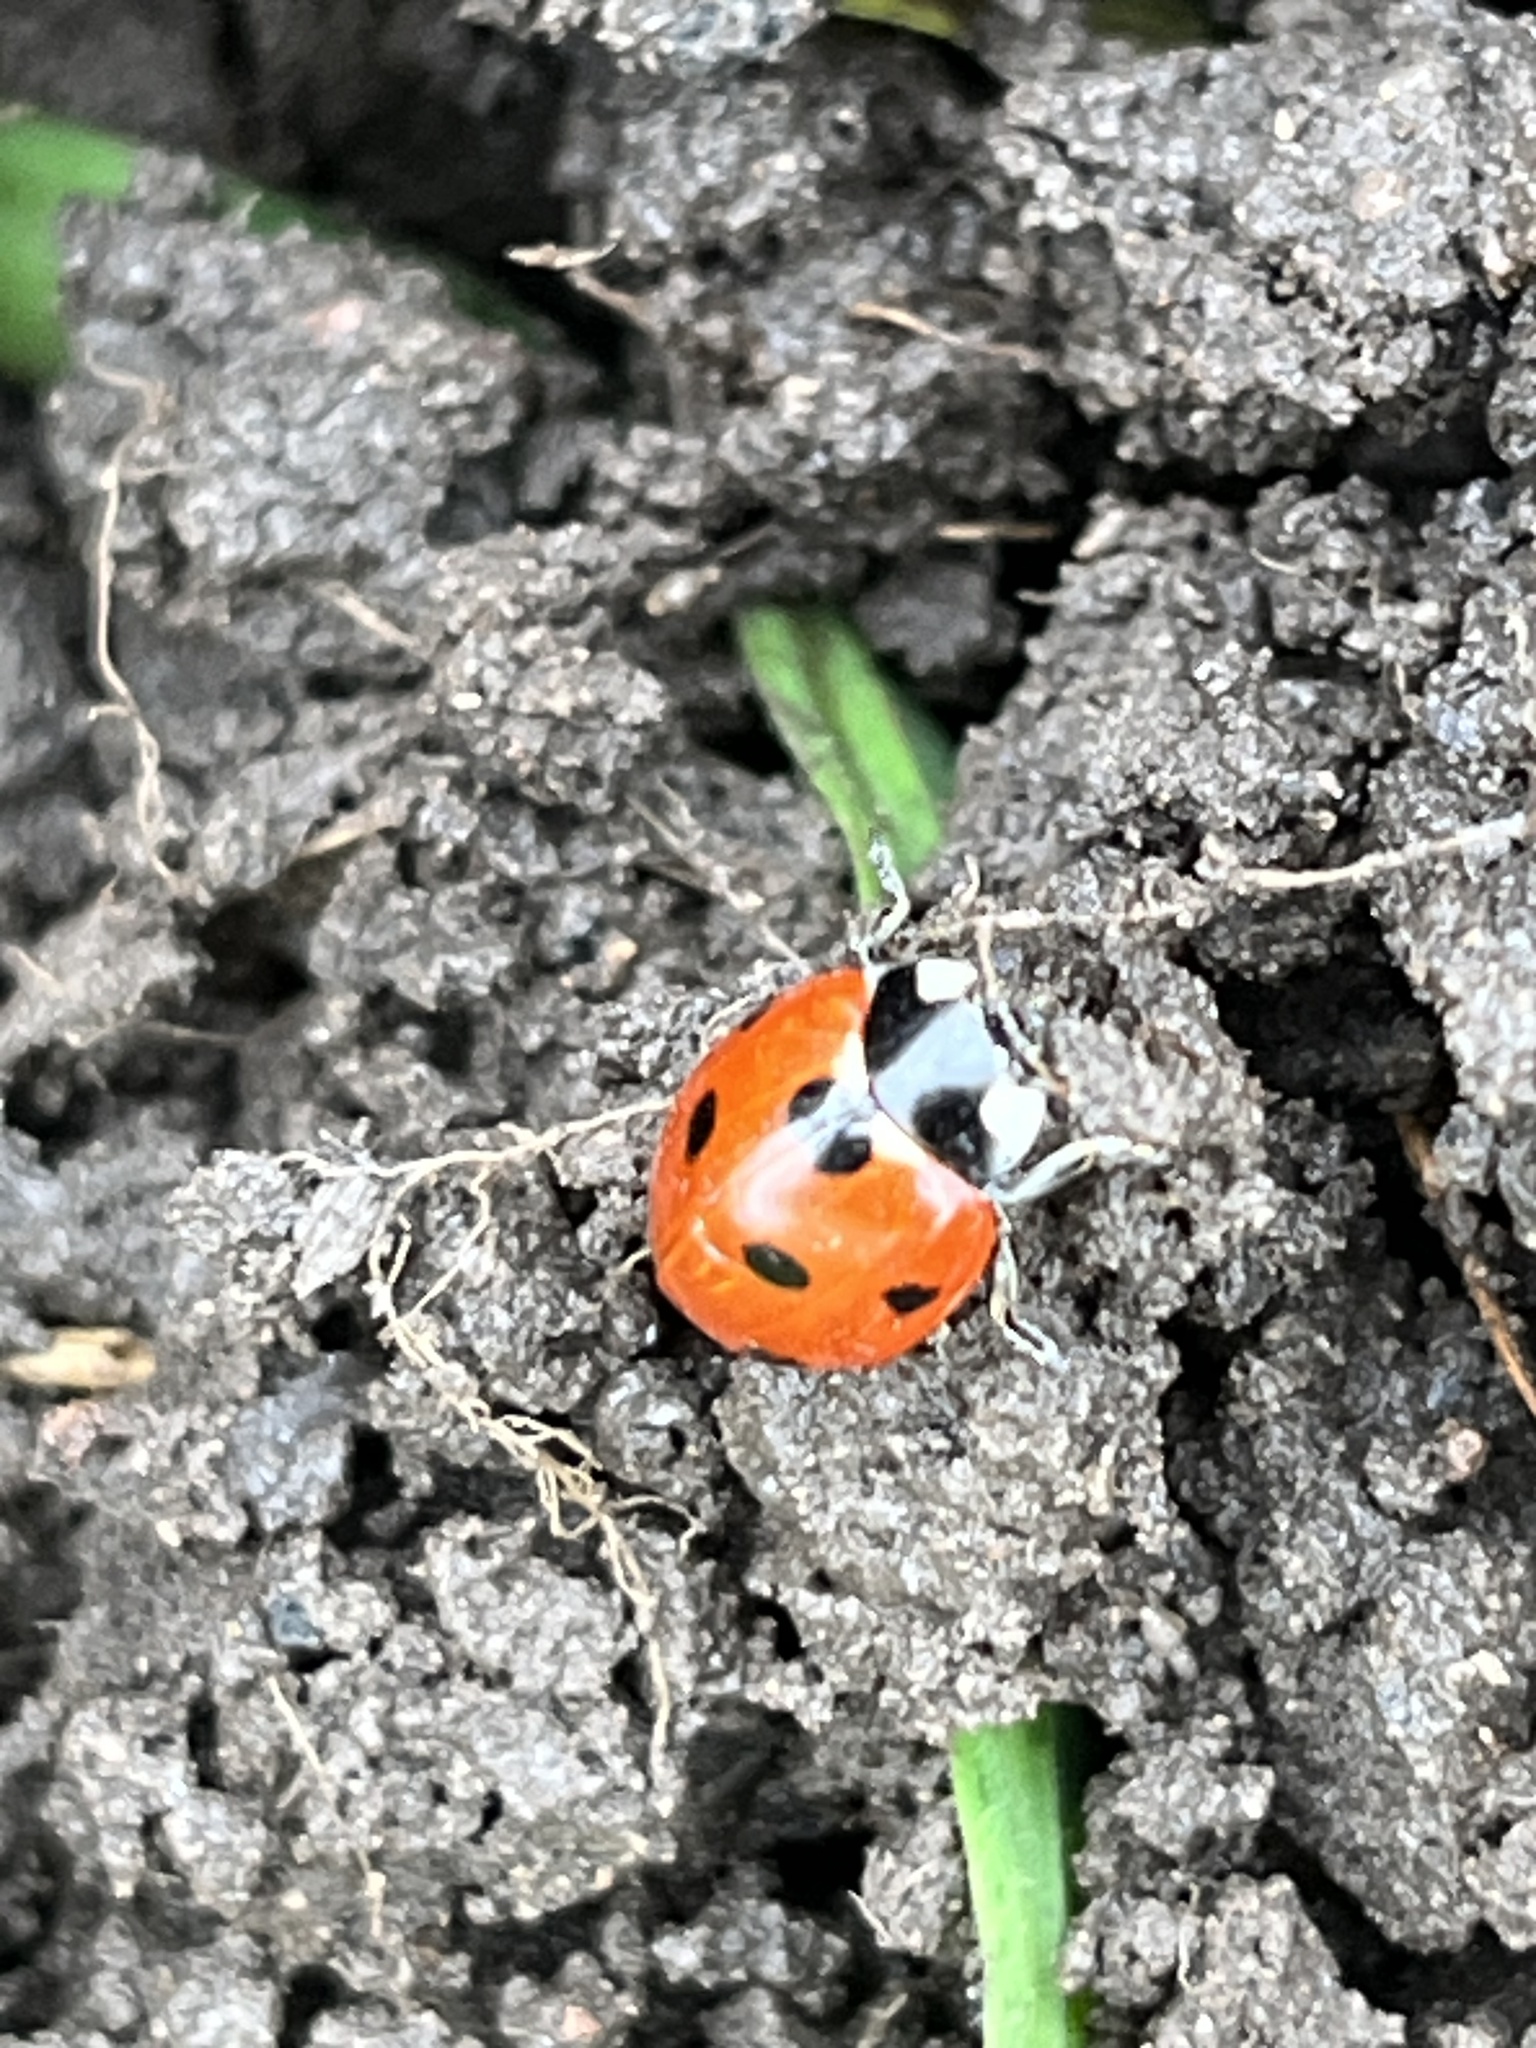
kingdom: Animalia
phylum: Arthropoda
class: Insecta
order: Coleoptera
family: Coccinellidae
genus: Coccinella
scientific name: Coccinella septempunctata
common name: Sevenspotted lady beetle
